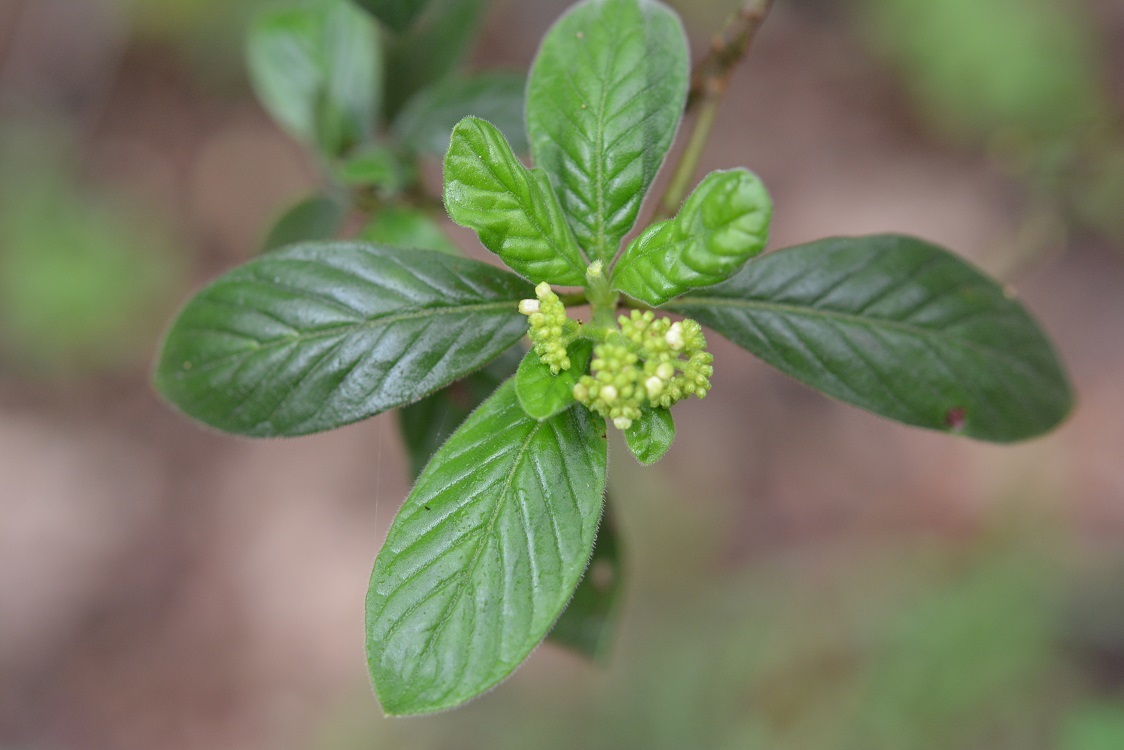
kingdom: Plantae
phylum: Tracheophyta
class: Magnoliopsida
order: Gentianales
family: Rubiaceae
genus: Psychotria
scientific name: Psychotria erythrocarpa
